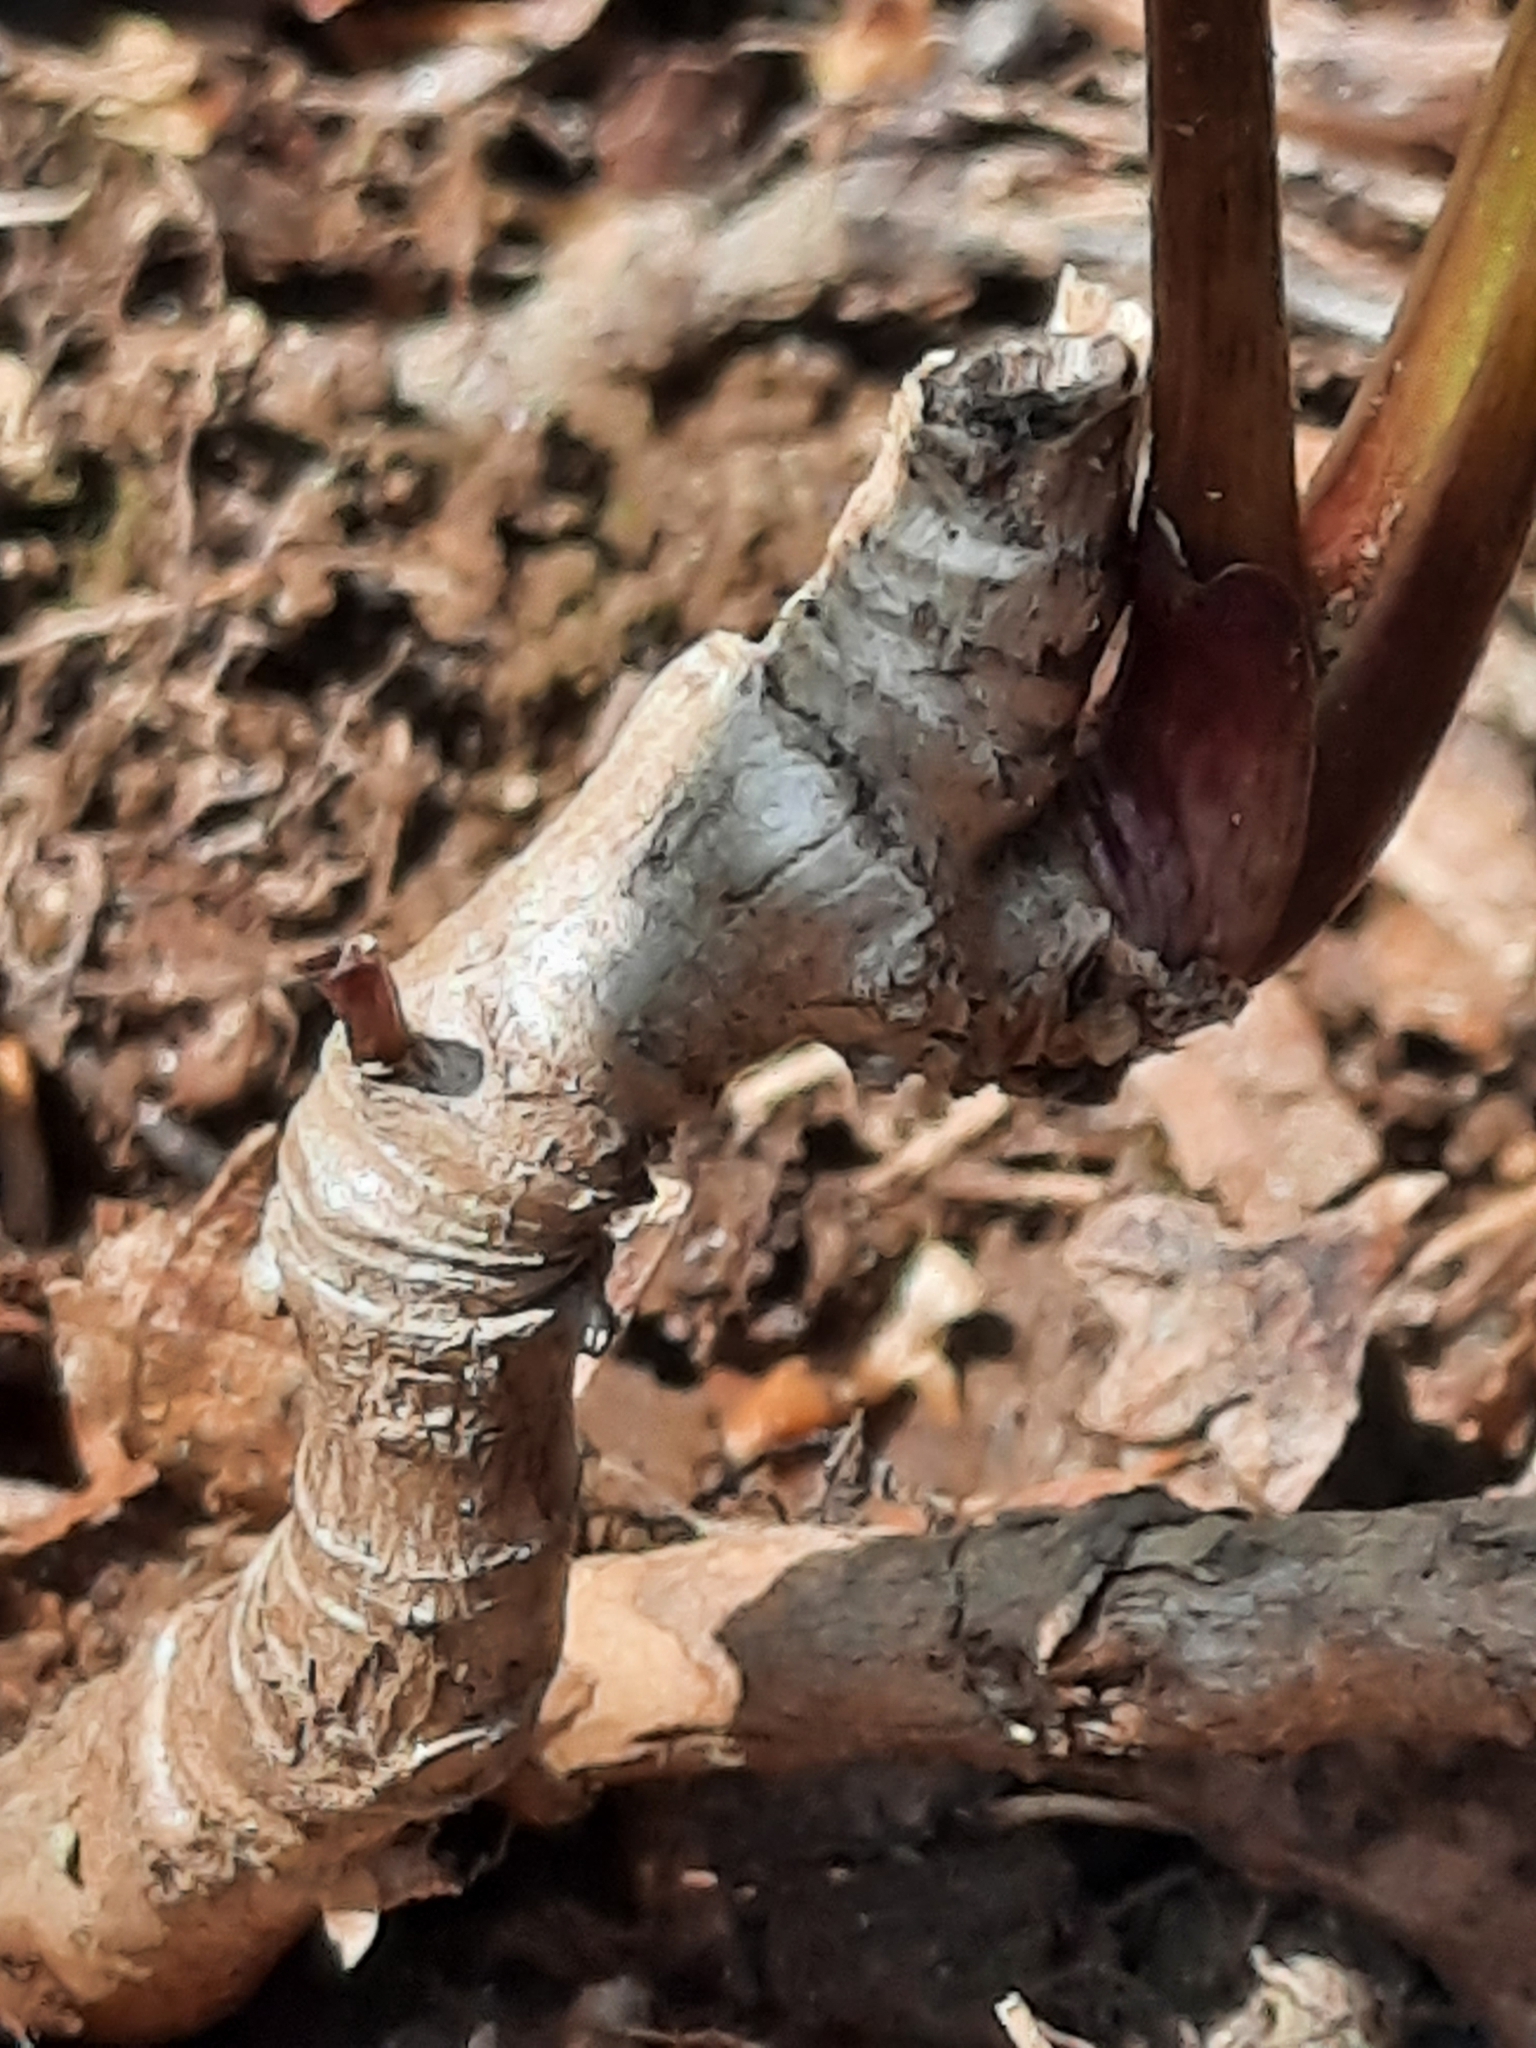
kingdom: Plantae
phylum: Tracheophyta
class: Magnoliopsida
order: Apiales
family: Araliaceae
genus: Aralia
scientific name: Aralia nudicaulis
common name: Wild sarsaparilla
